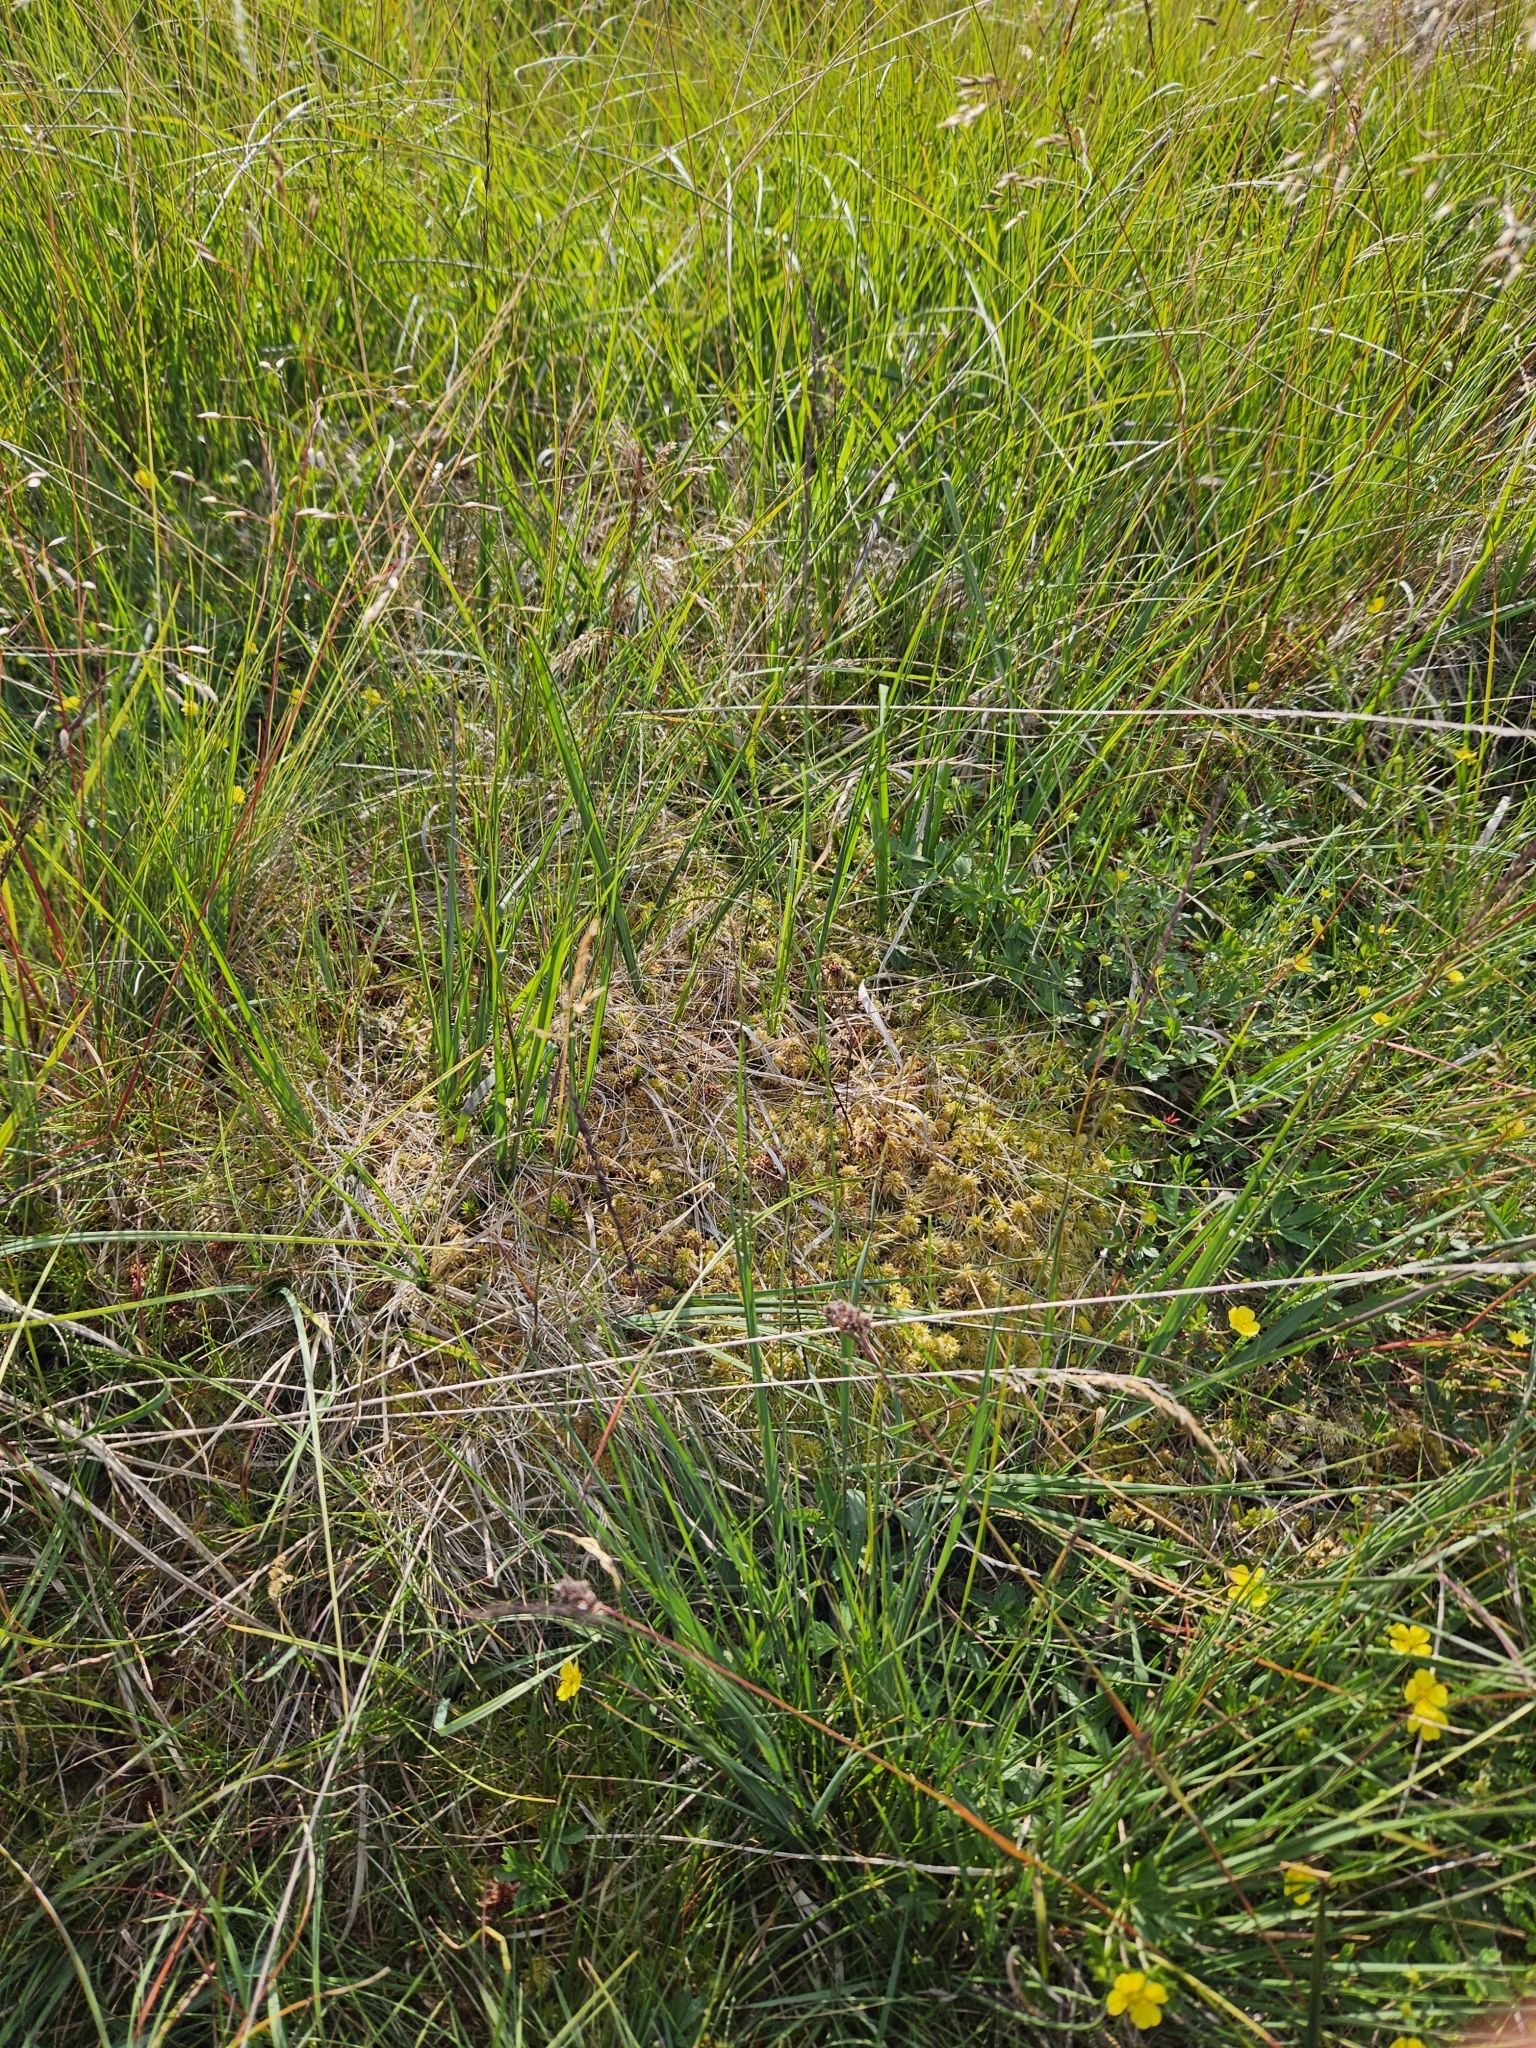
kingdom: Plantae
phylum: Bryophyta
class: Sphagnopsida
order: Sphagnales
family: Sphagnaceae
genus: Sphagnum
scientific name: Sphagnum fimbriatum
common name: Fringed peat moss
